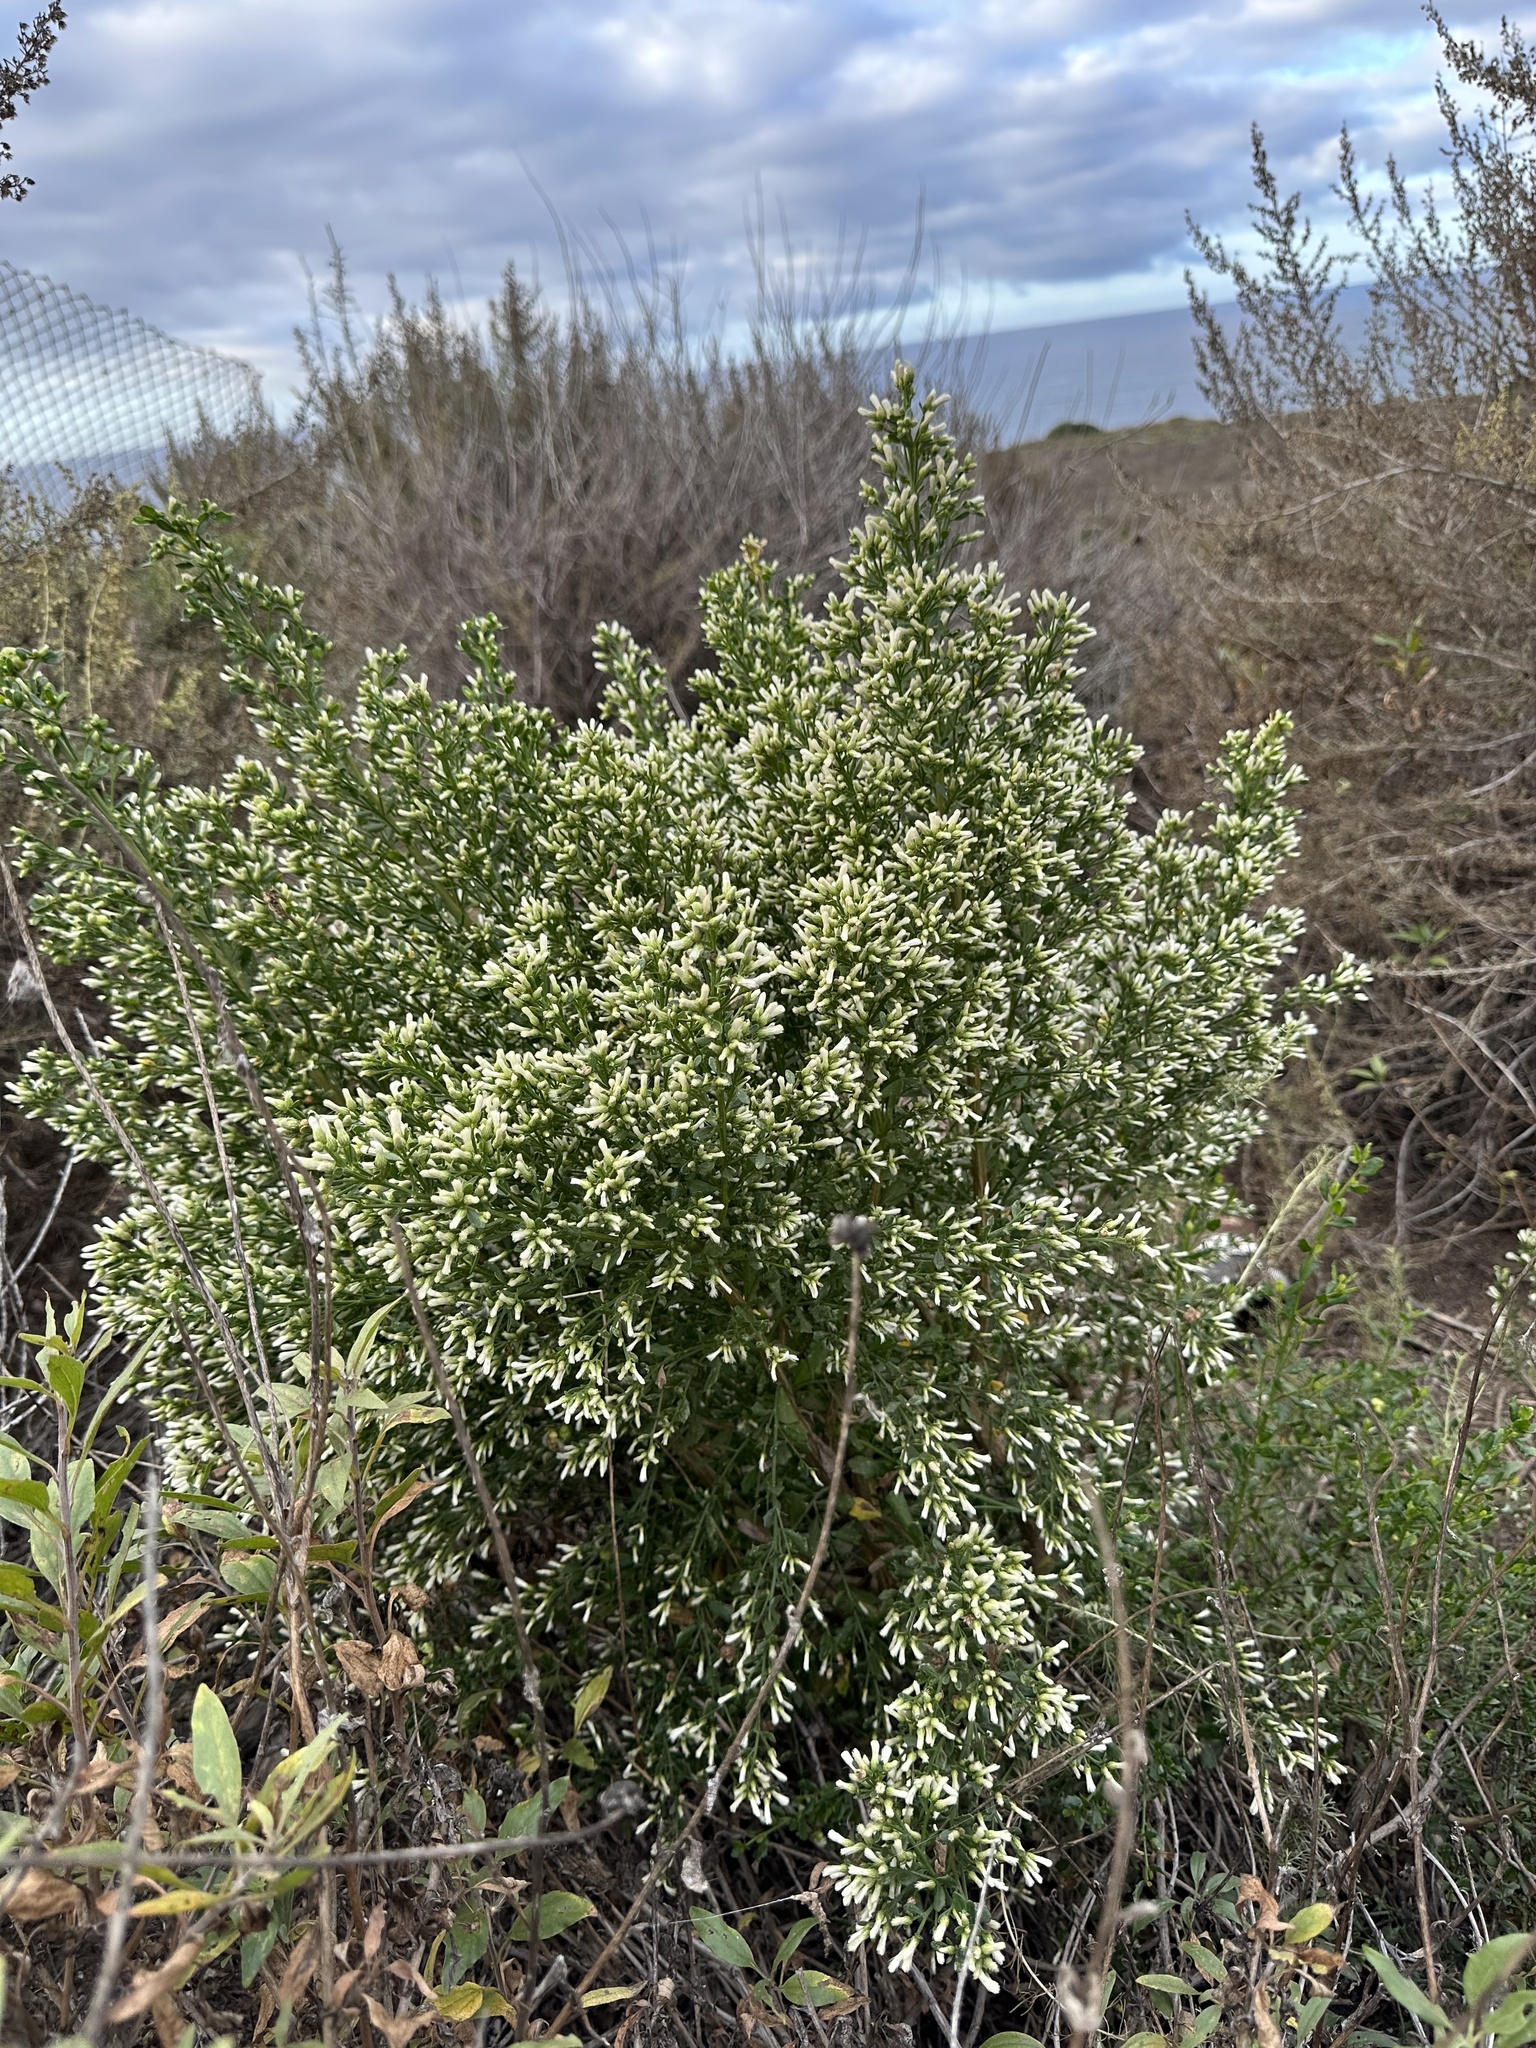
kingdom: Plantae
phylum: Tracheophyta
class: Magnoliopsida
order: Asterales
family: Asteraceae
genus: Baccharis
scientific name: Baccharis pilularis
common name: Coyotebrush
